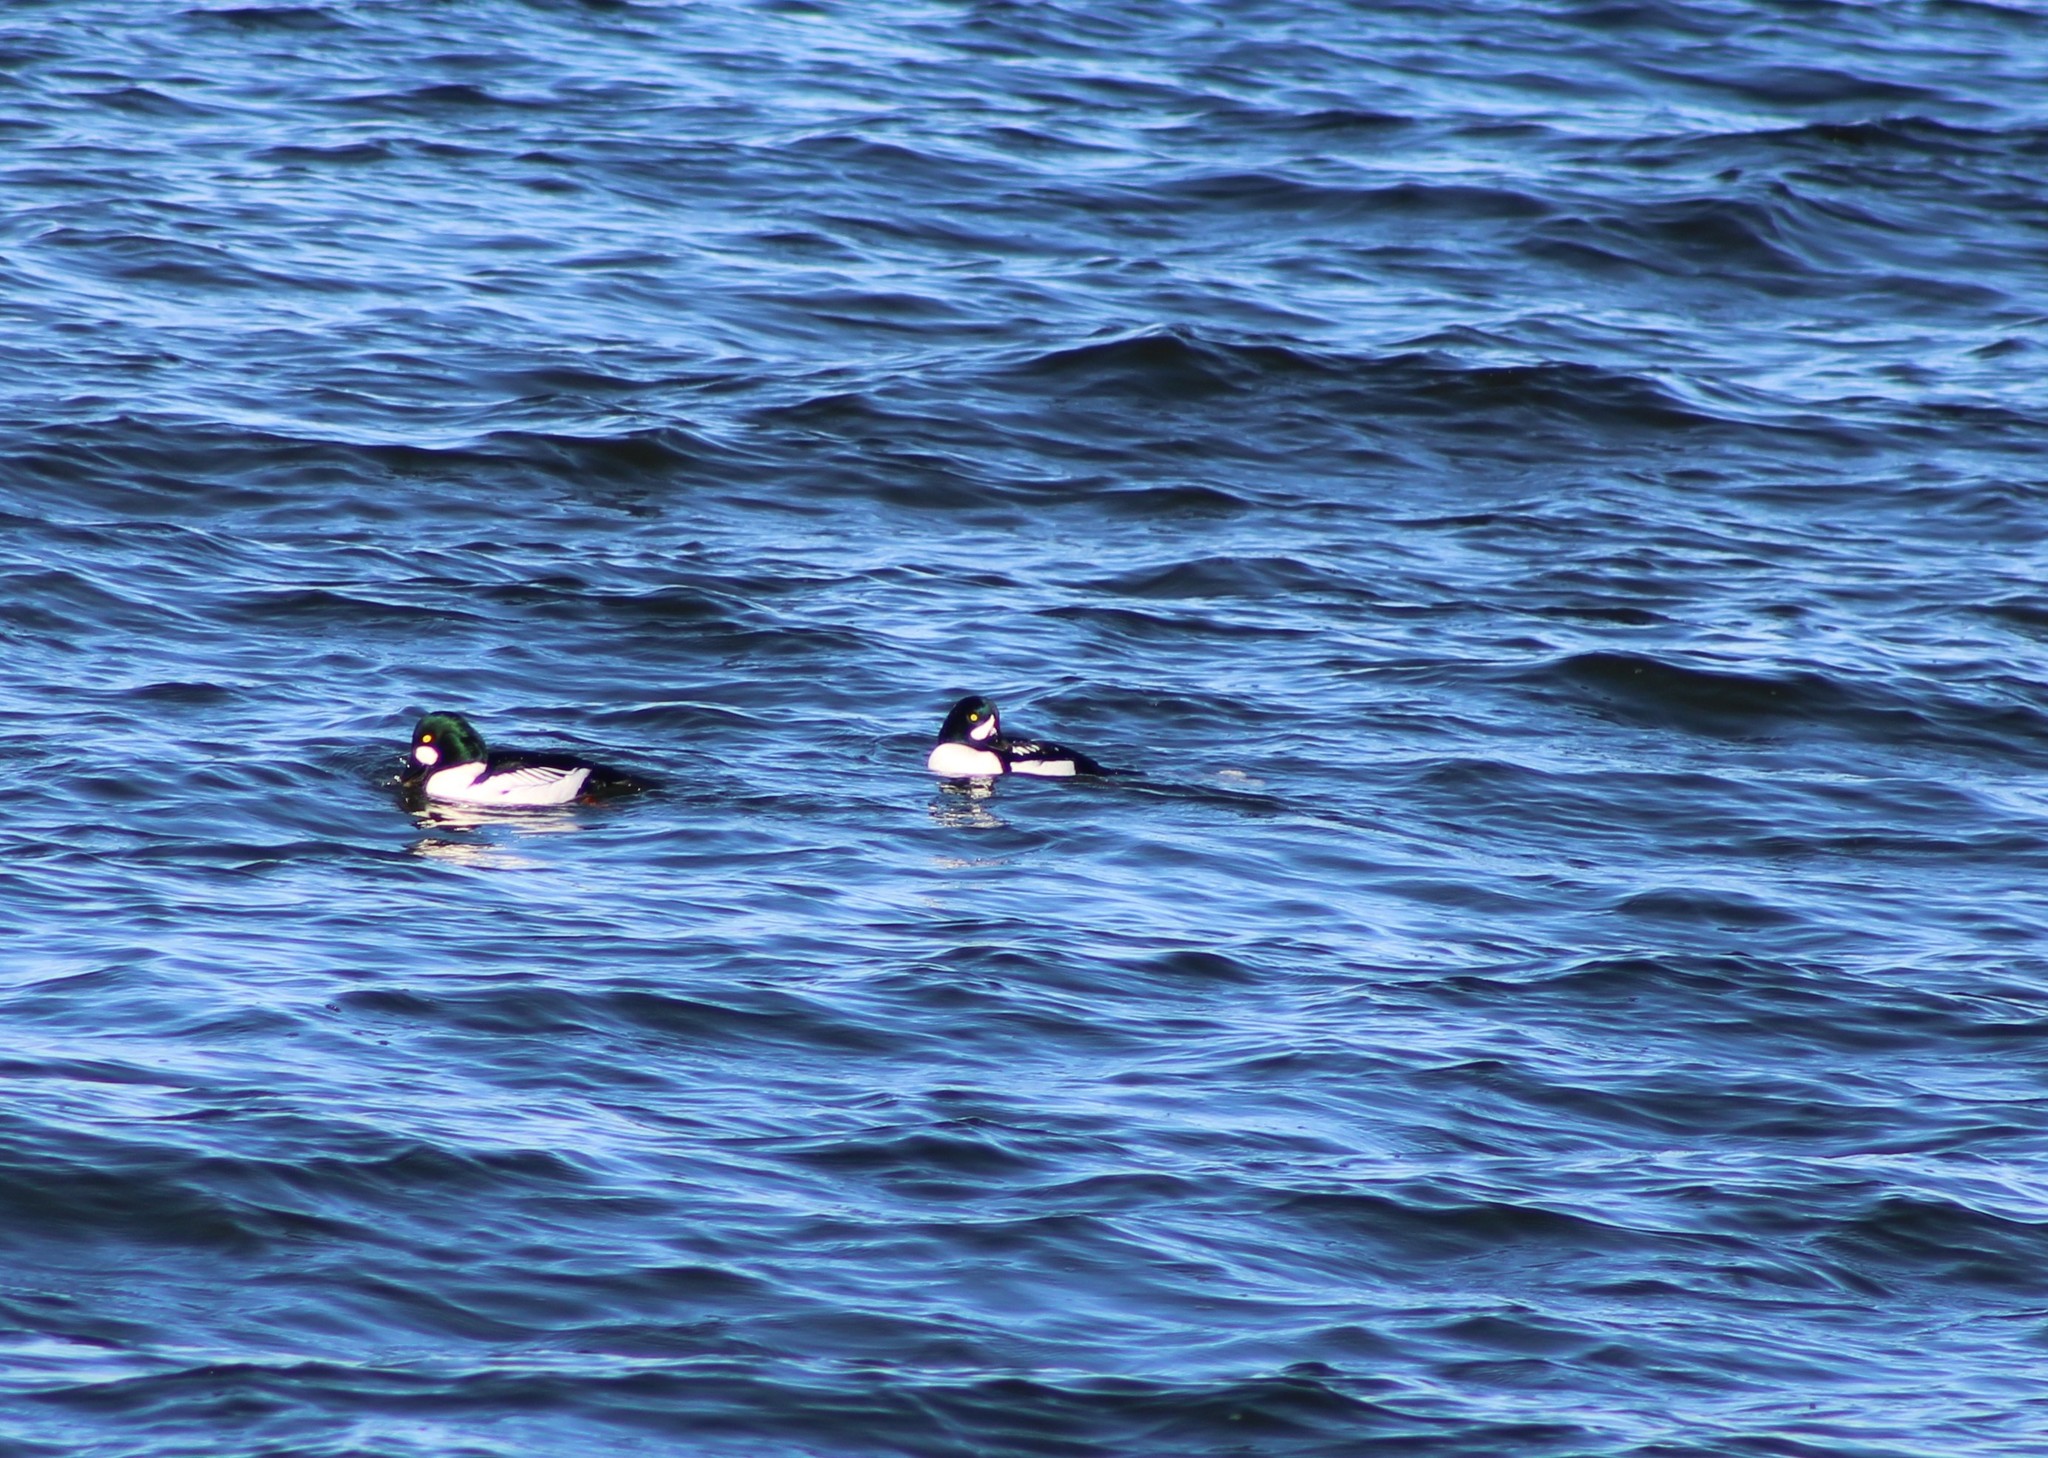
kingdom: Animalia
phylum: Chordata
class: Aves
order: Anseriformes
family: Anatidae
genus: Bucephala
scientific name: Bucephala islandica
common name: Barrow's goldeneye
